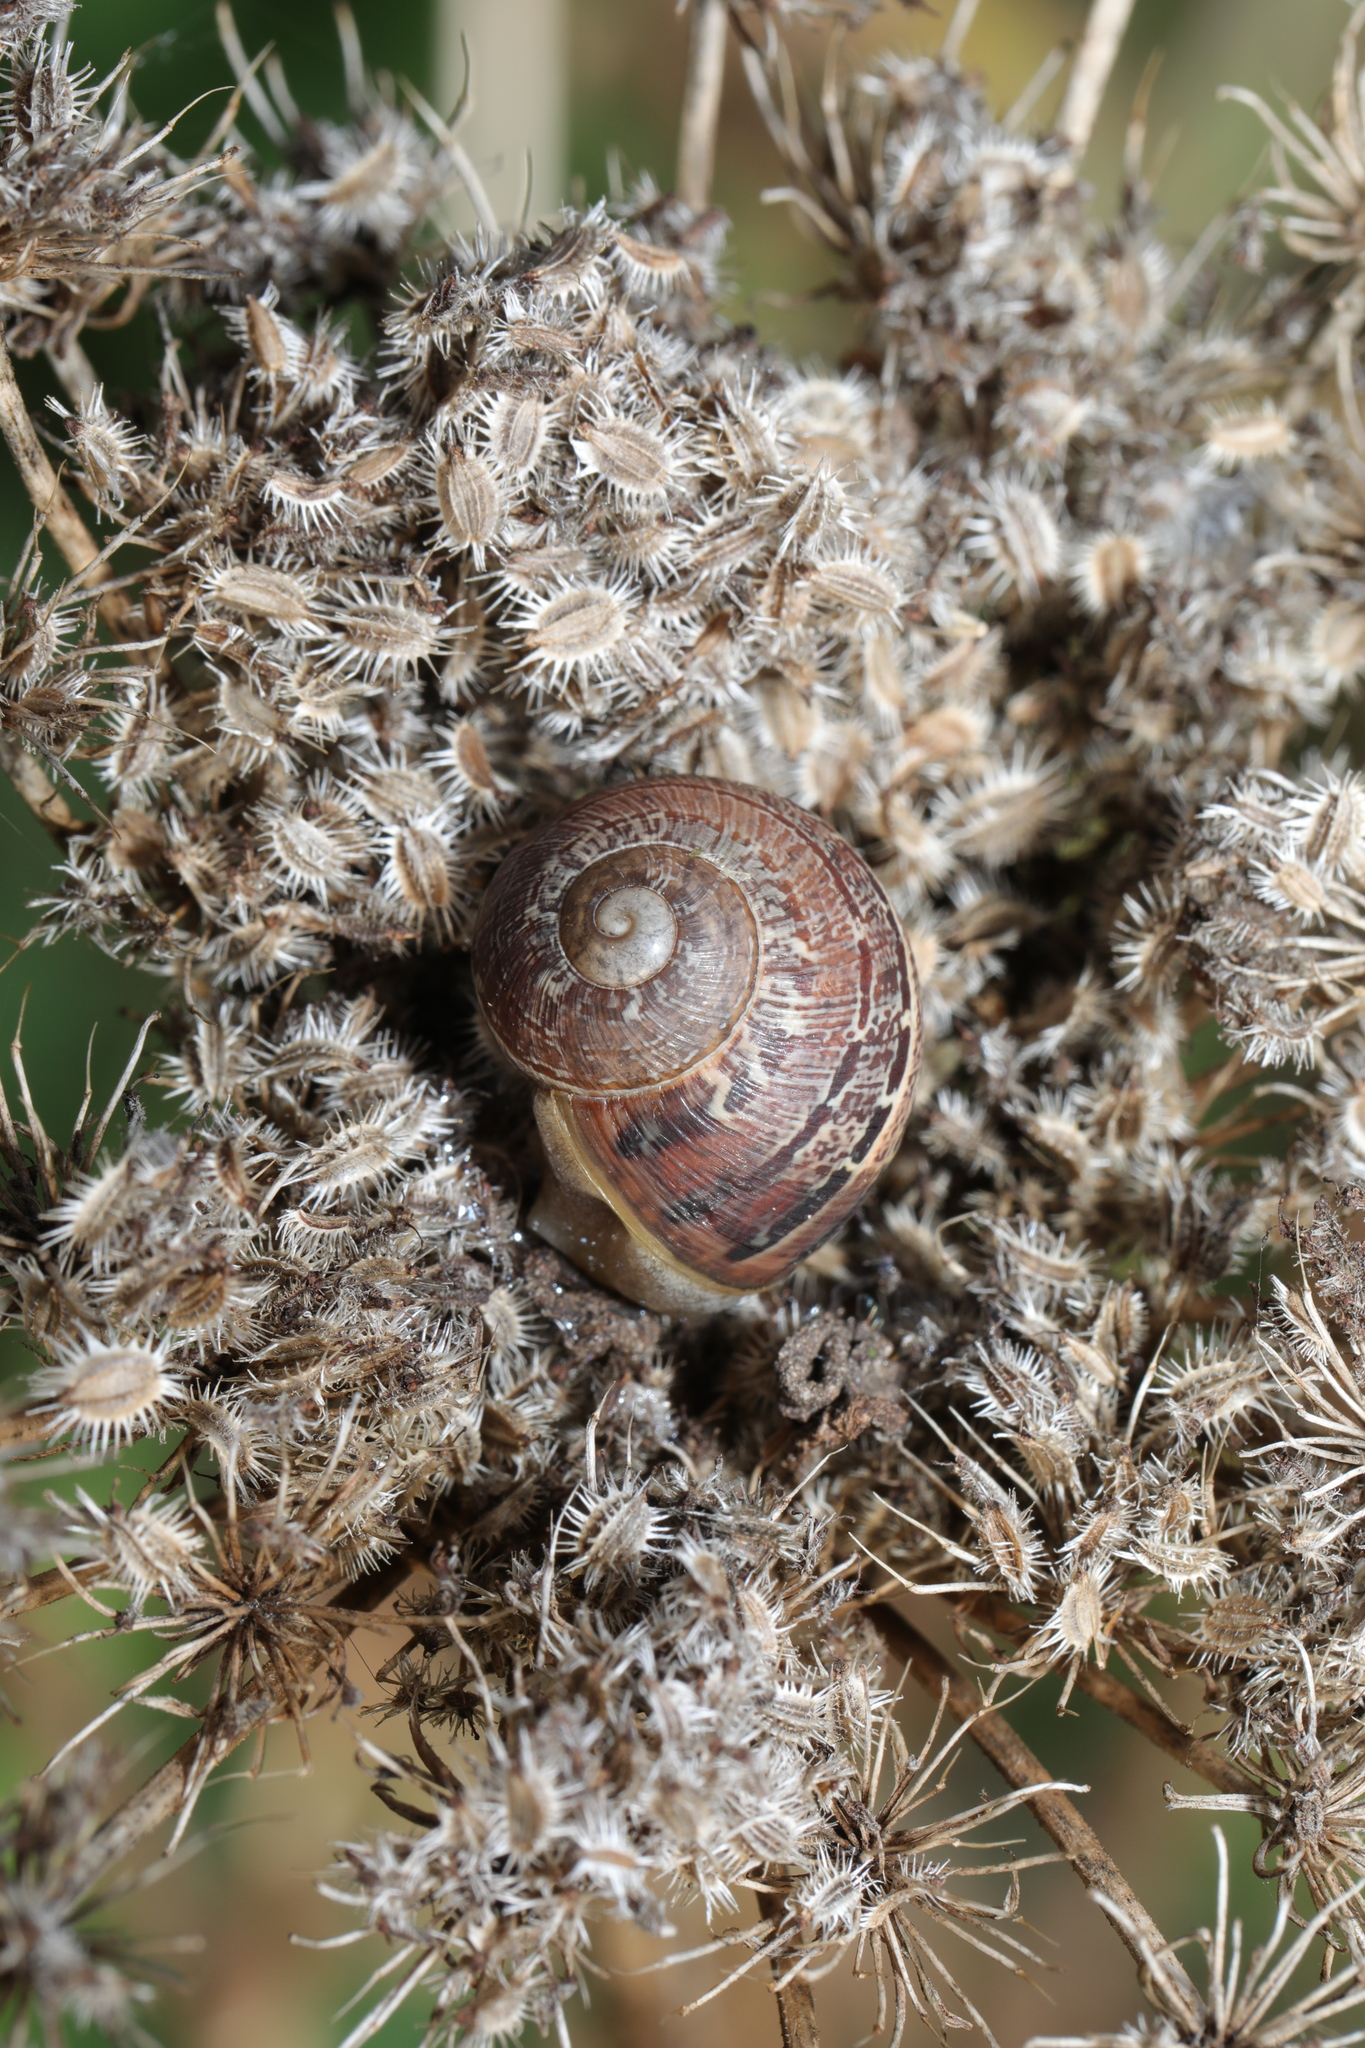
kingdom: Animalia
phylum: Mollusca
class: Gastropoda
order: Stylommatophora
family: Helicidae
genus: Cornu
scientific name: Cornu aspersum
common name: Brown garden snail
